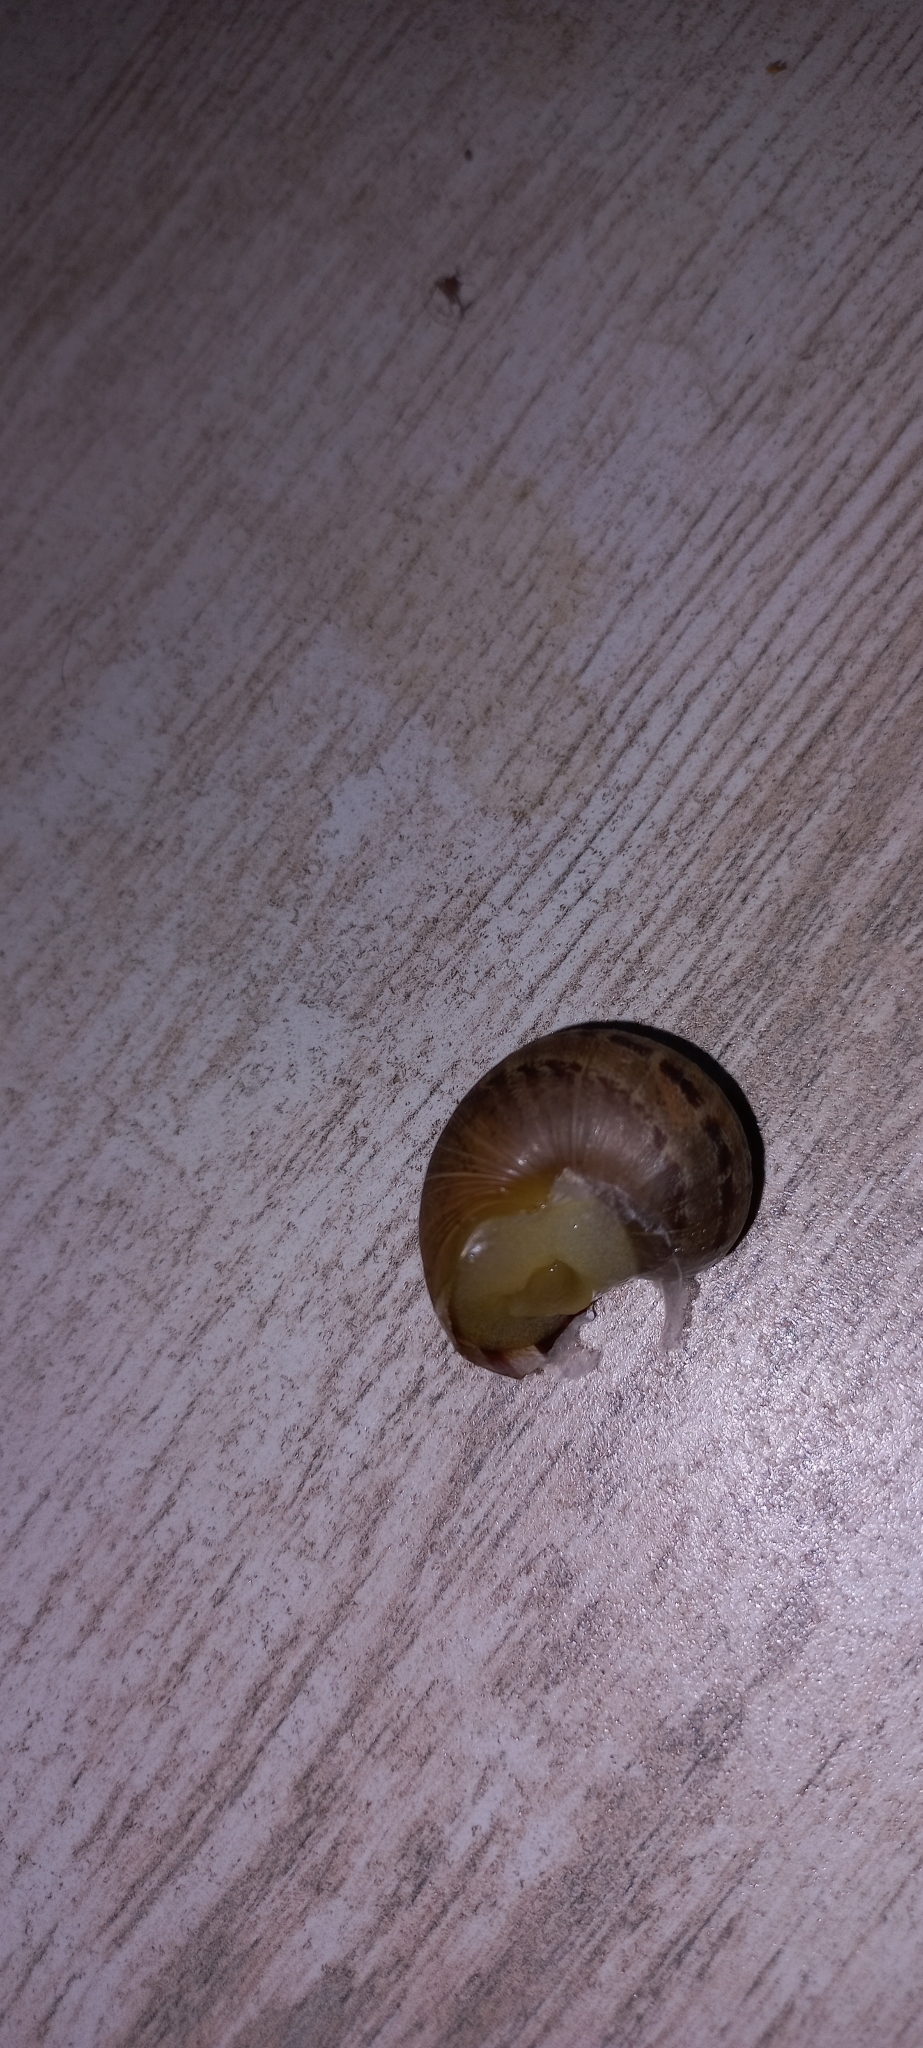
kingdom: Animalia
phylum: Mollusca
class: Gastropoda
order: Stylommatophora
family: Helicidae
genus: Cornu
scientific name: Cornu aspersum
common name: Brown garden snail
